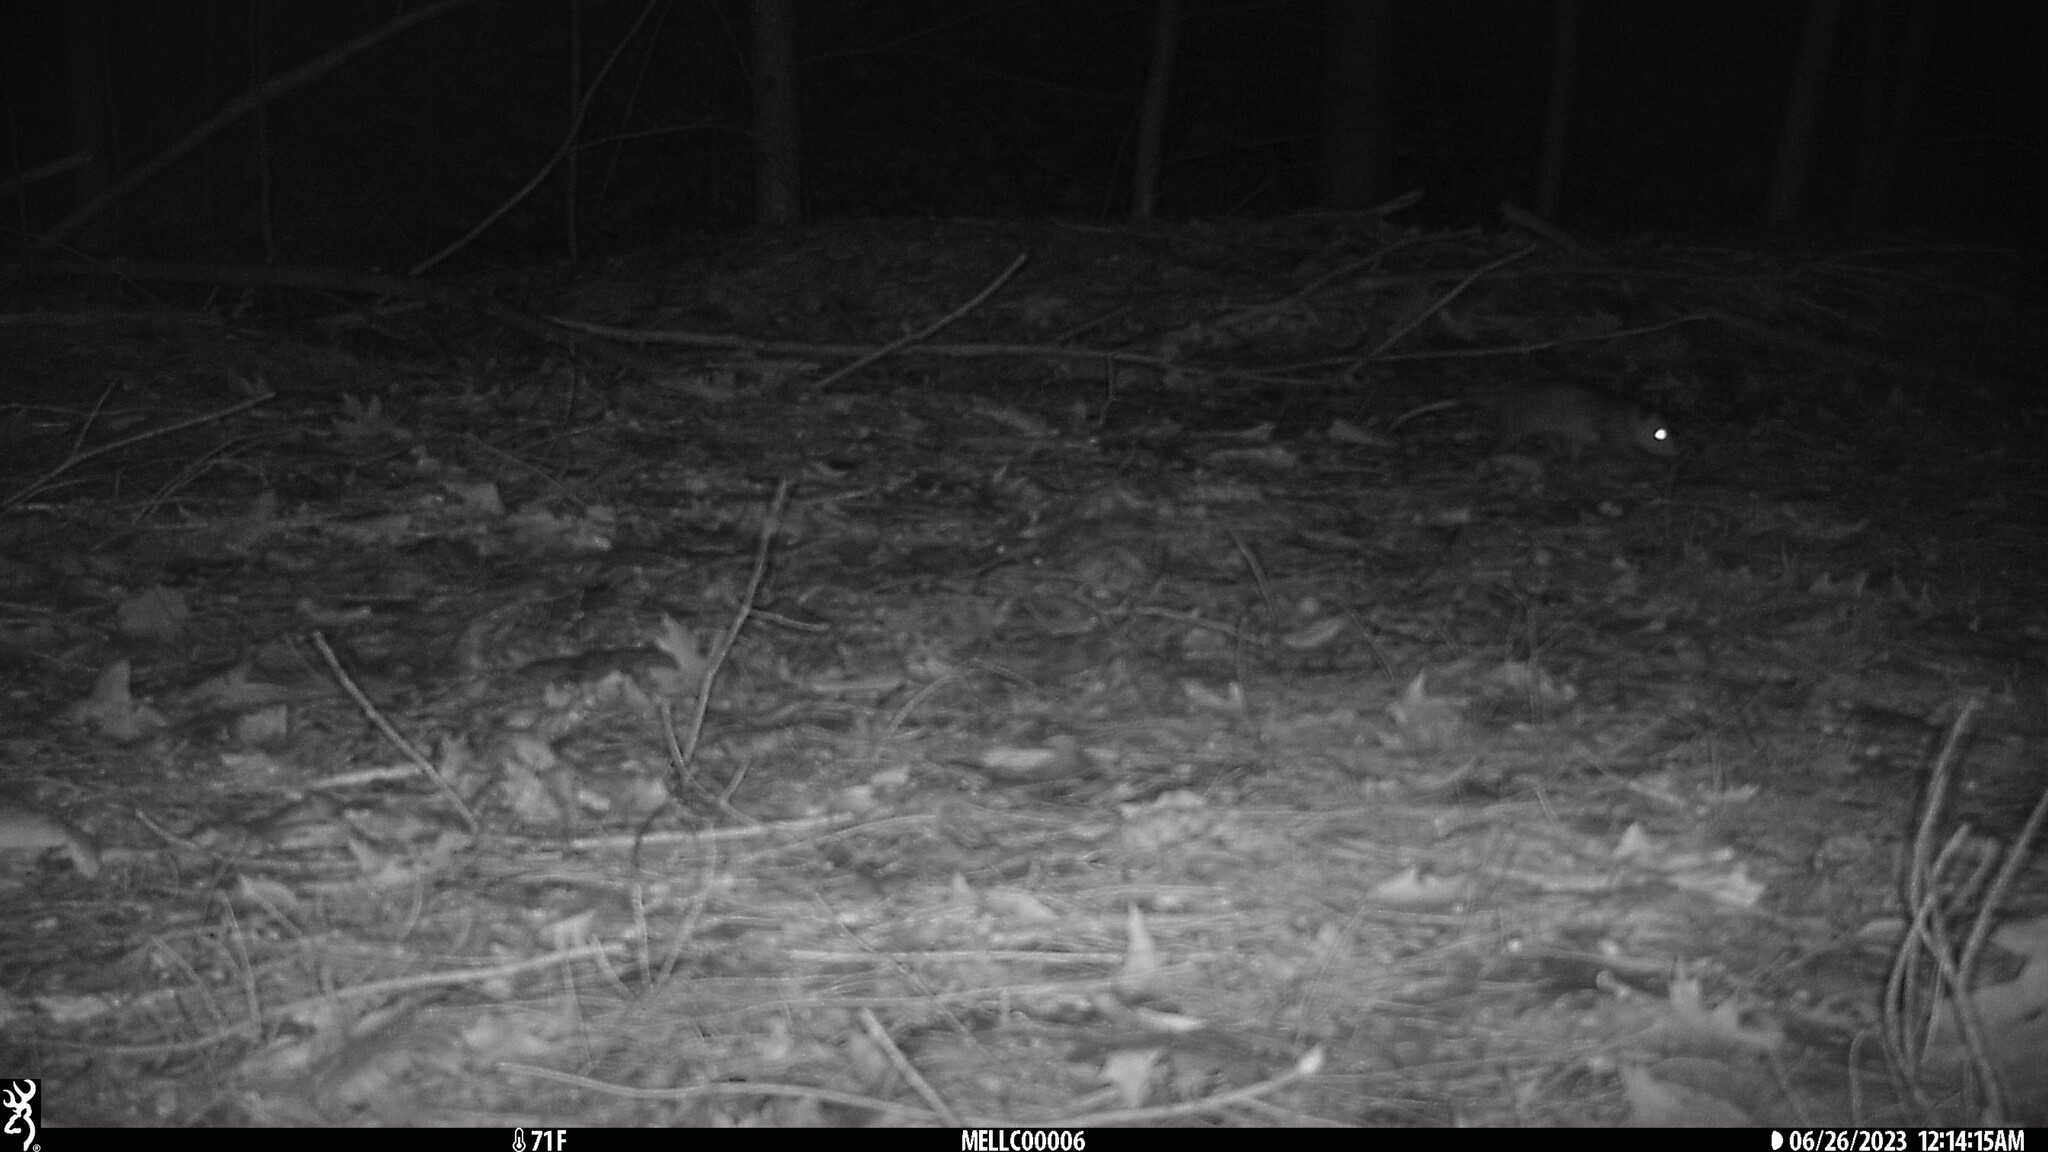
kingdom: Animalia
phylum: Chordata
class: Mammalia
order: Didelphimorphia
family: Didelphidae
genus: Didelphis
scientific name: Didelphis virginiana
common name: Virginia opossum
